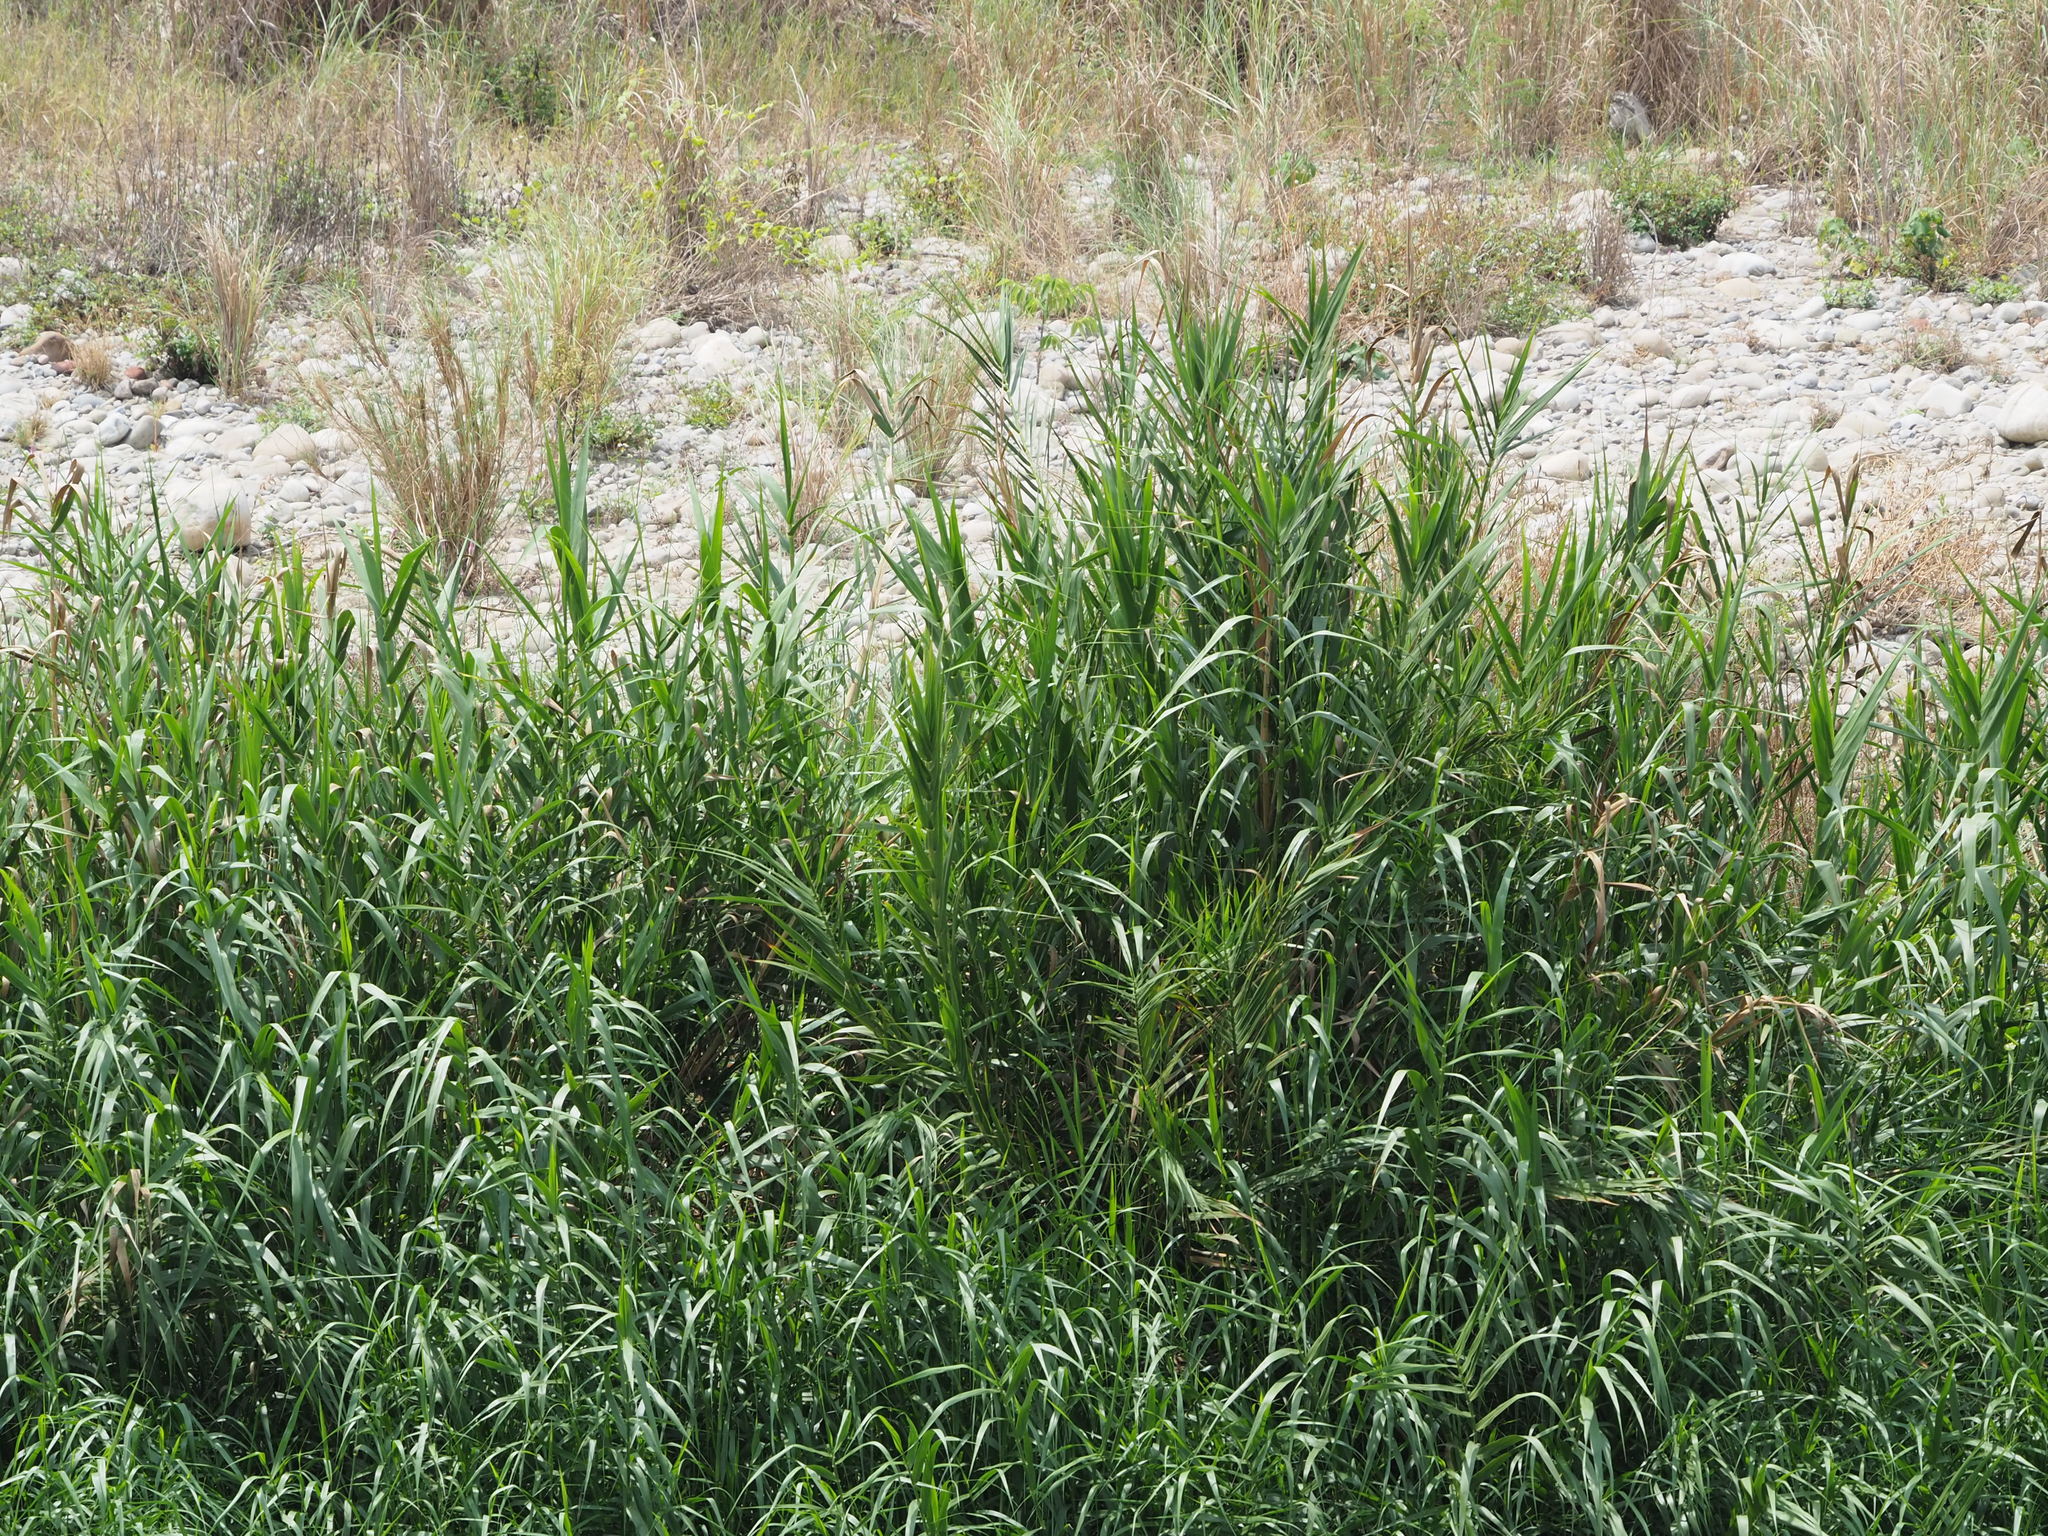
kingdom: Plantae
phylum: Tracheophyta
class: Liliopsida
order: Poales
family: Poaceae
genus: Cenchrus
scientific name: Cenchrus purpureus
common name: Elephant grass
